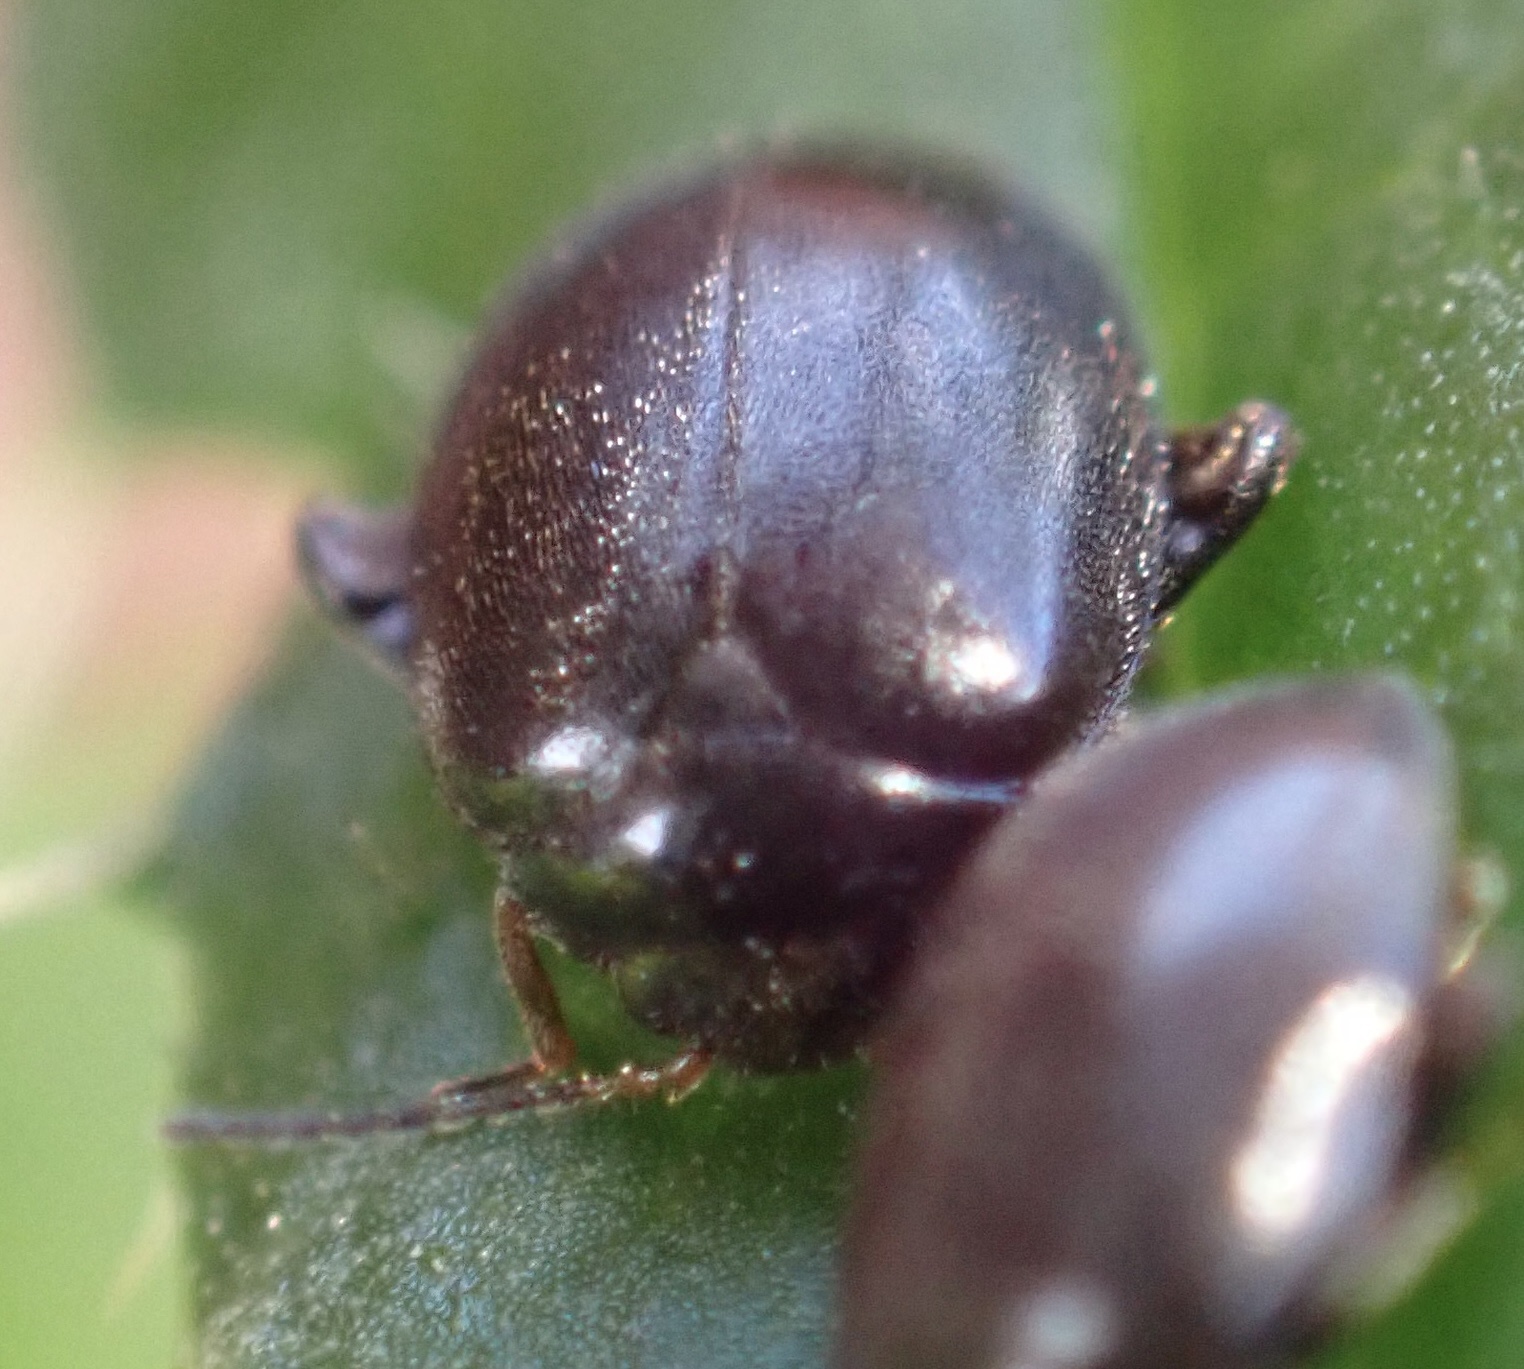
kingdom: Animalia
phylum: Arthropoda
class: Insecta
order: Coleoptera
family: Scirtidae
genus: Scirtes
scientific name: Scirtes hemisphaericus
